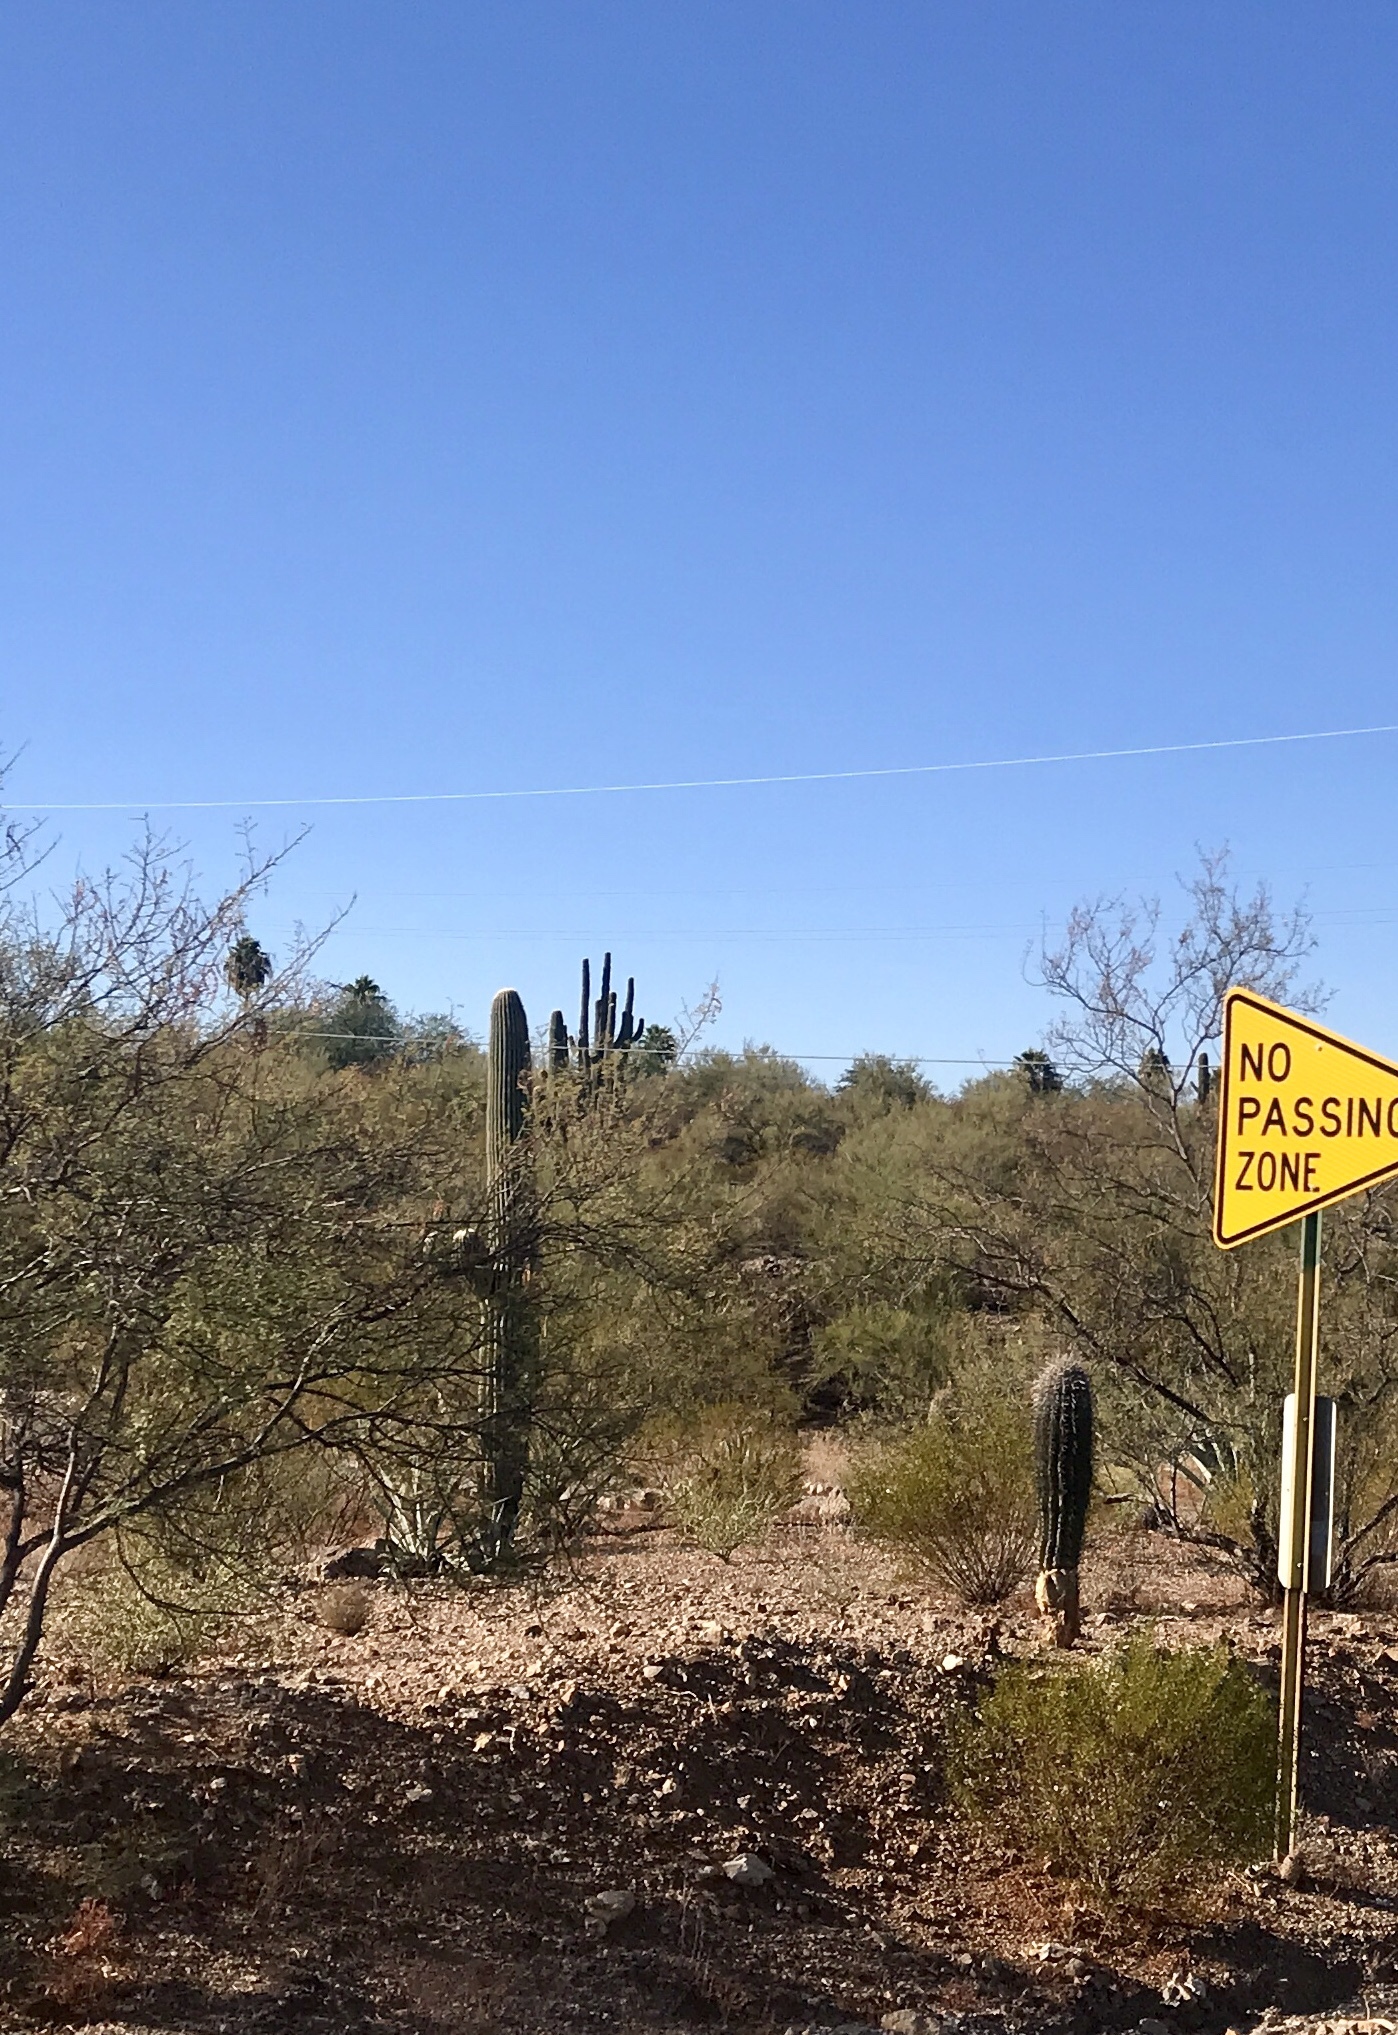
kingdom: Plantae
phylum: Tracheophyta
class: Magnoliopsida
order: Caryophyllales
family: Cactaceae
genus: Carnegiea
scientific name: Carnegiea gigantea
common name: Saguaro
